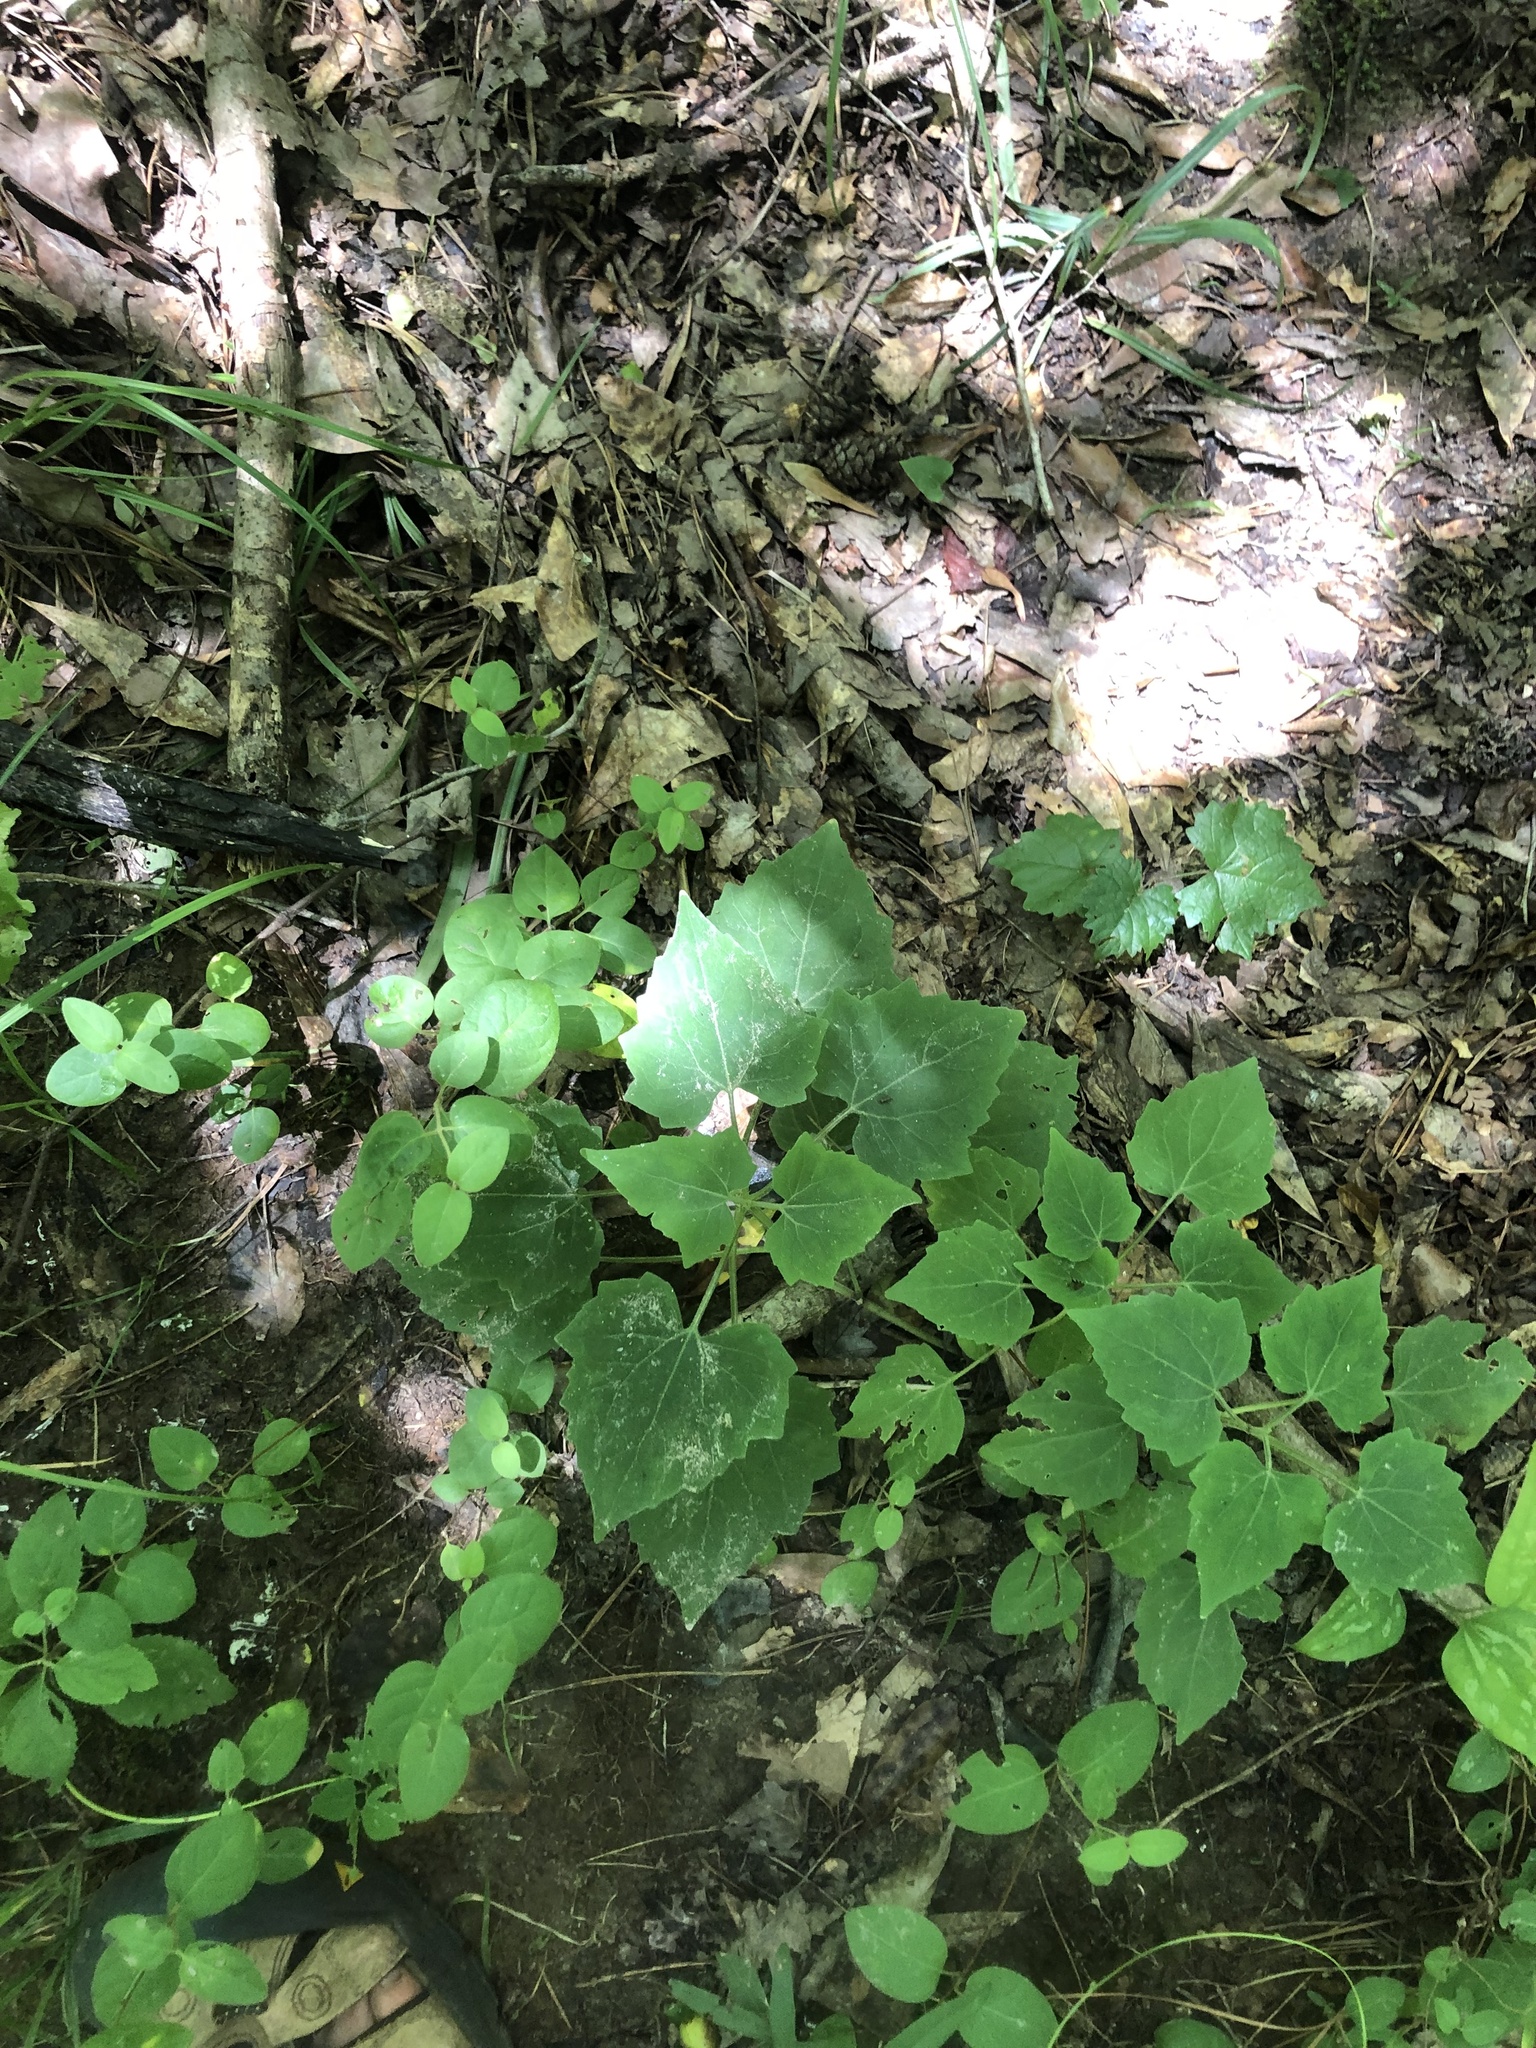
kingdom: Plantae
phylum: Tracheophyta
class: Magnoliopsida
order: Asterales
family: Asteraceae
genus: Mikania
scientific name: Mikania cordifolia
